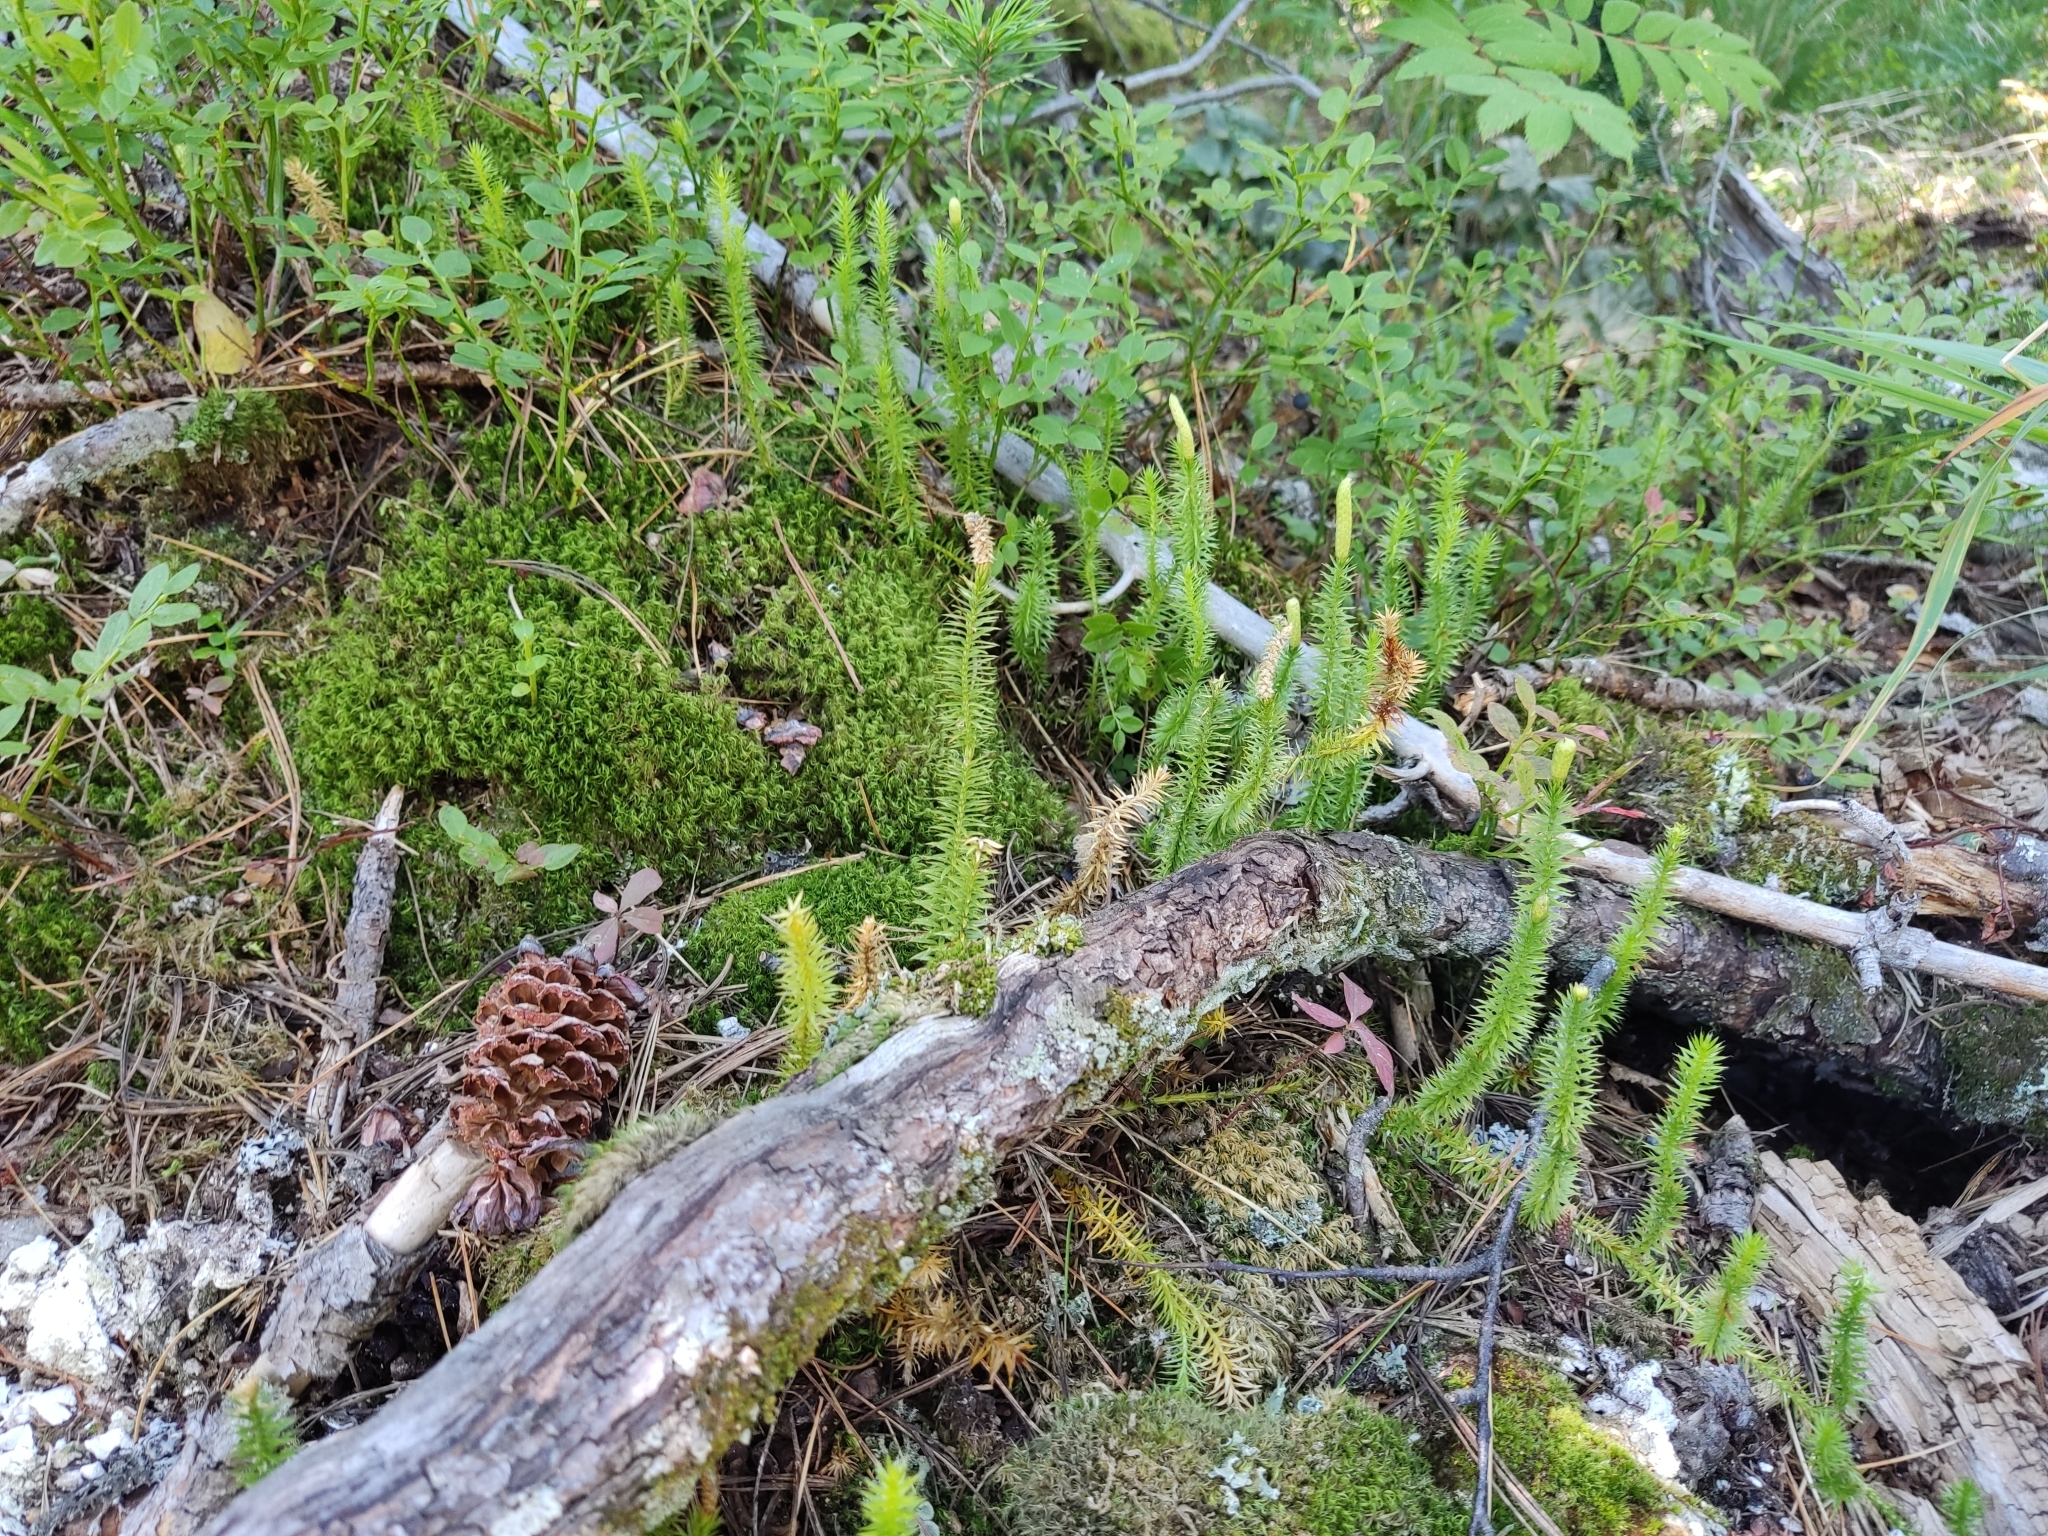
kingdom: Plantae
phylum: Tracheophyta
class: Lycopodiopsida
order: Lycopodiales
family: Lycopodiaceae
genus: Spinulum
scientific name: Spinulum annotinum
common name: Interrupted club-moss
